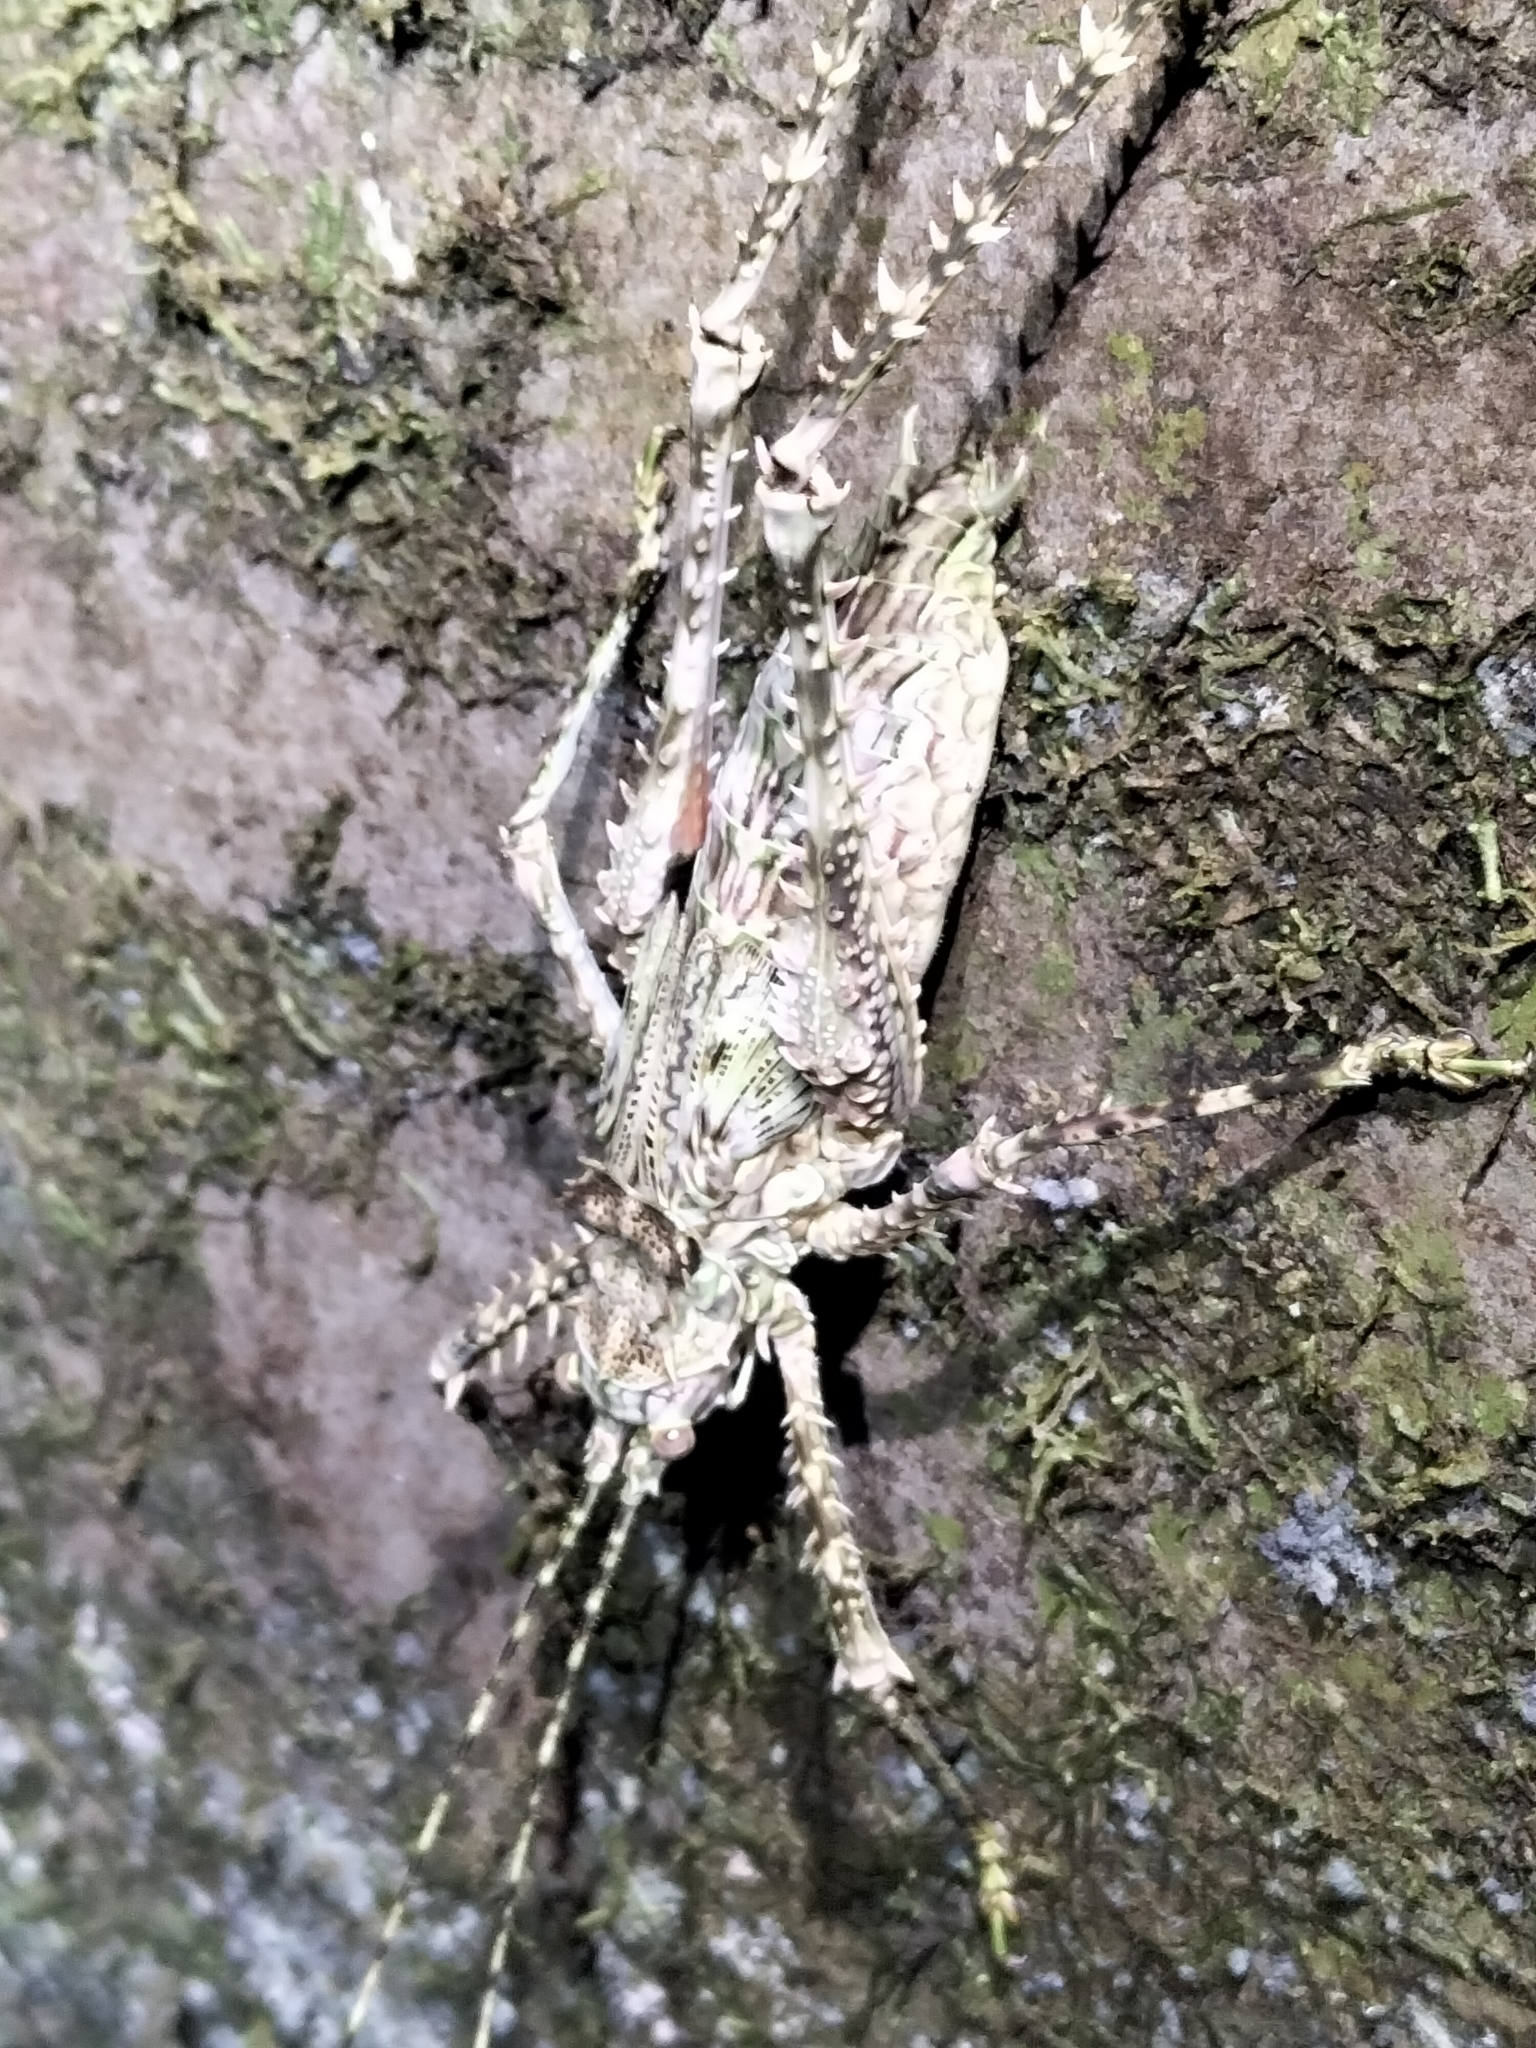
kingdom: Animalia
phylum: Arthropoda
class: Insecta
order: Orthoptera
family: Tettigoniidae
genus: Phricta
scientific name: Phricta spinosa
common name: Giant spiny forest katydid
